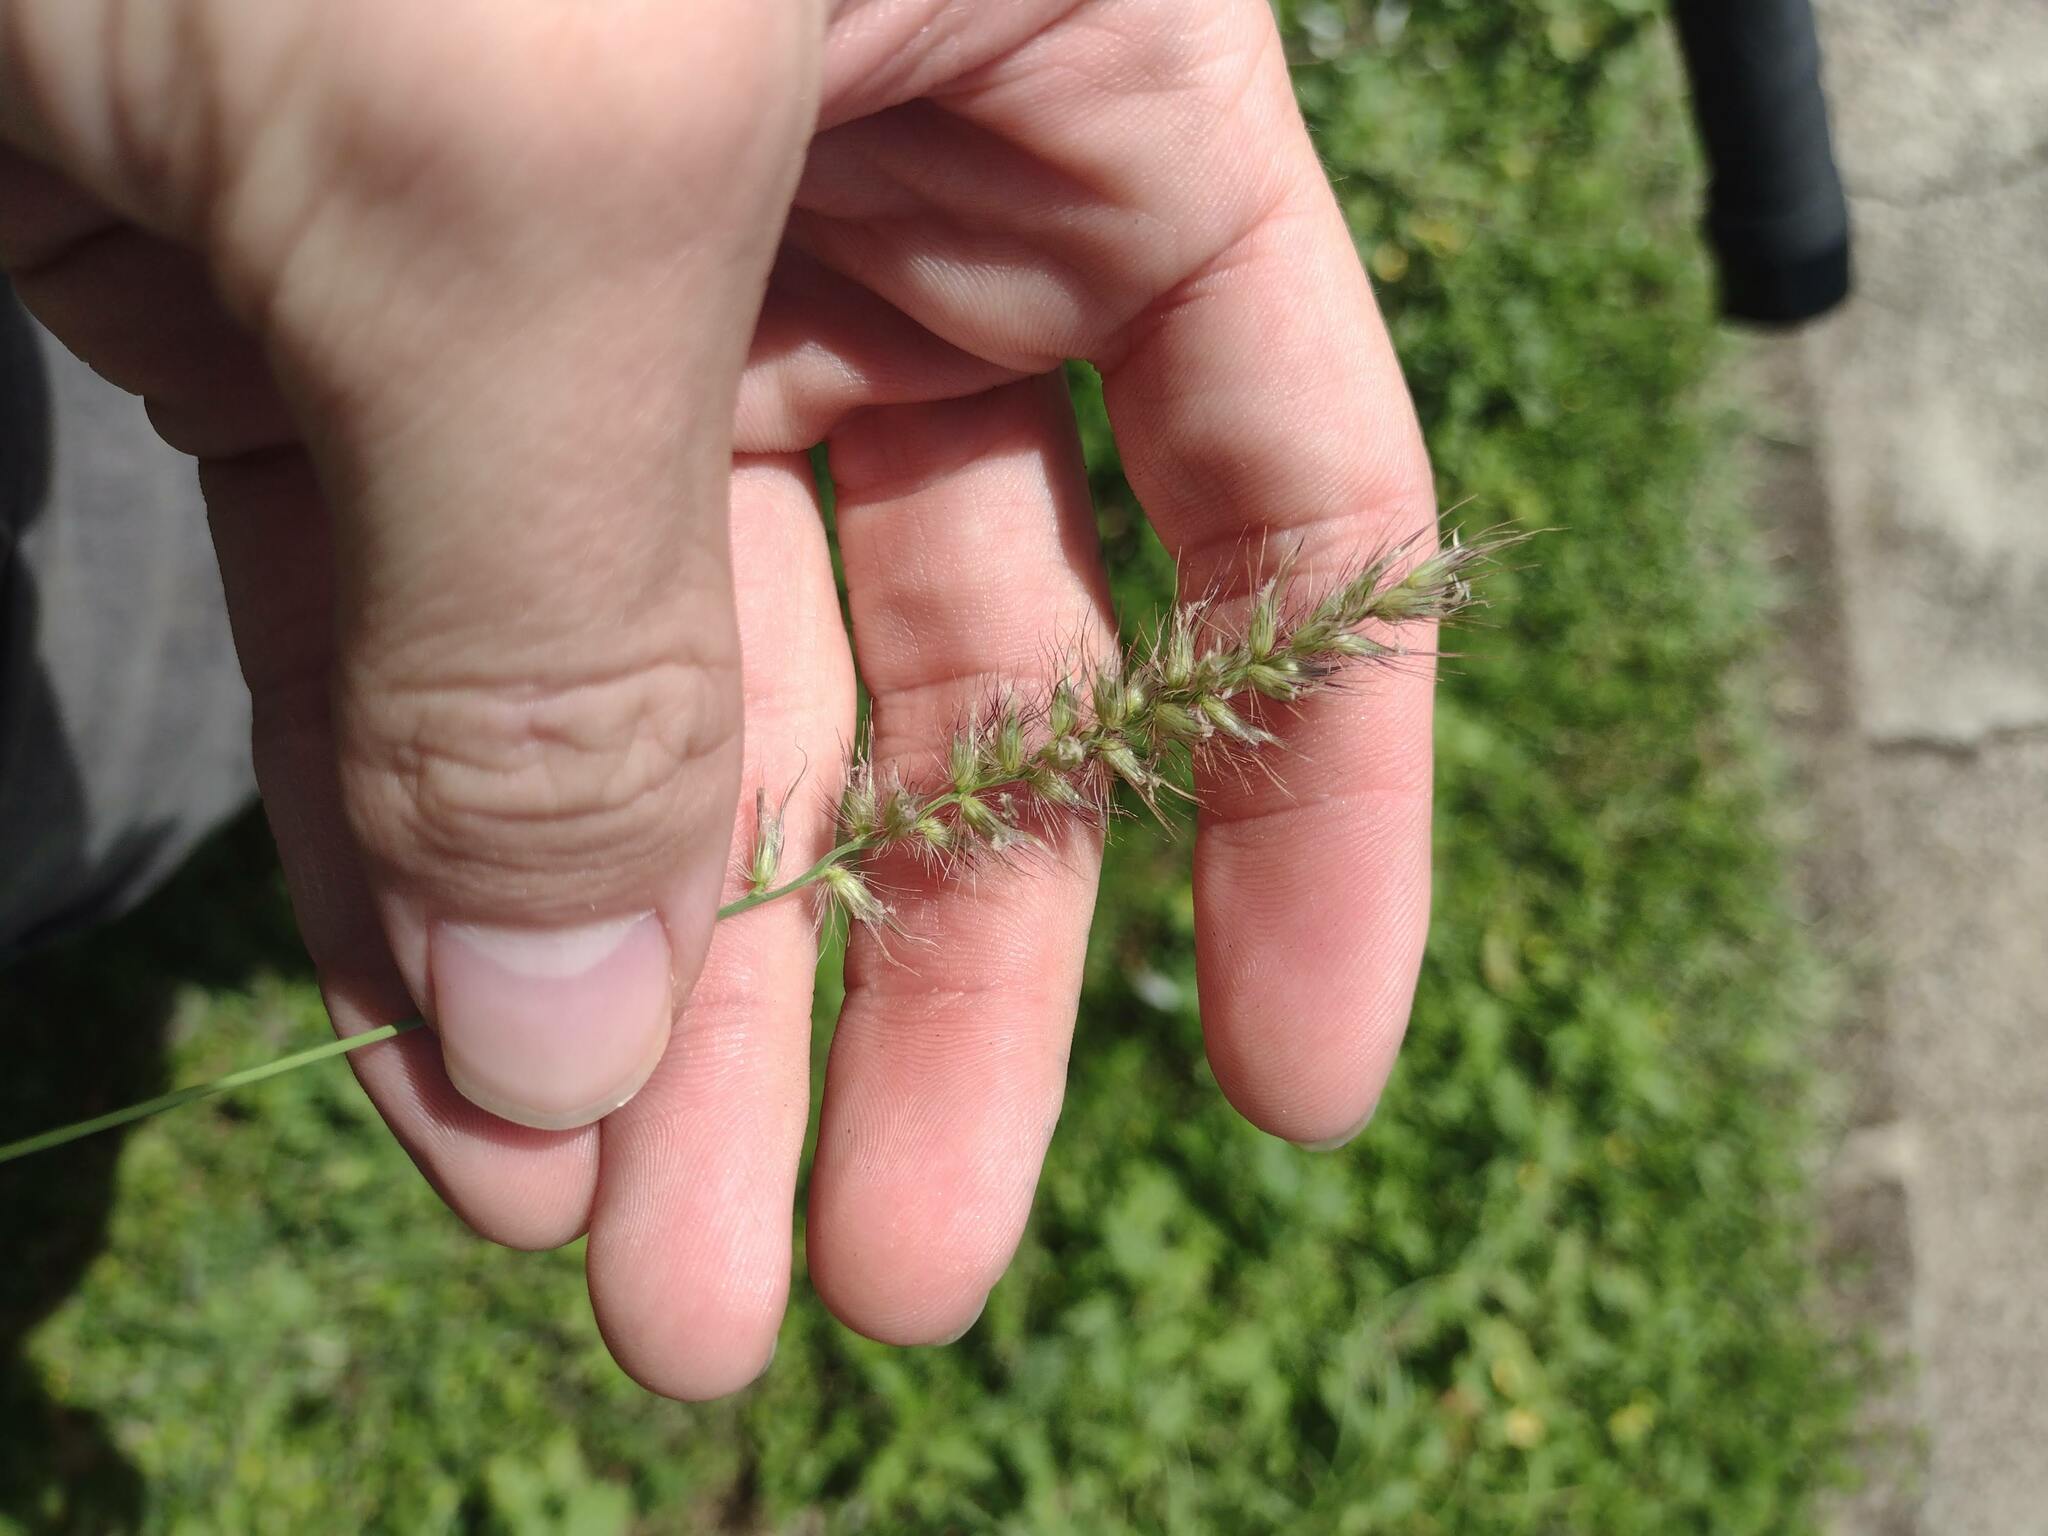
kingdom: Plantae
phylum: Tracheophyta
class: Liliopsida
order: Poales
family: Poaceae
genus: Cenchrus
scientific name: Cenchrus ciliaris
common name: Buffelgrass
